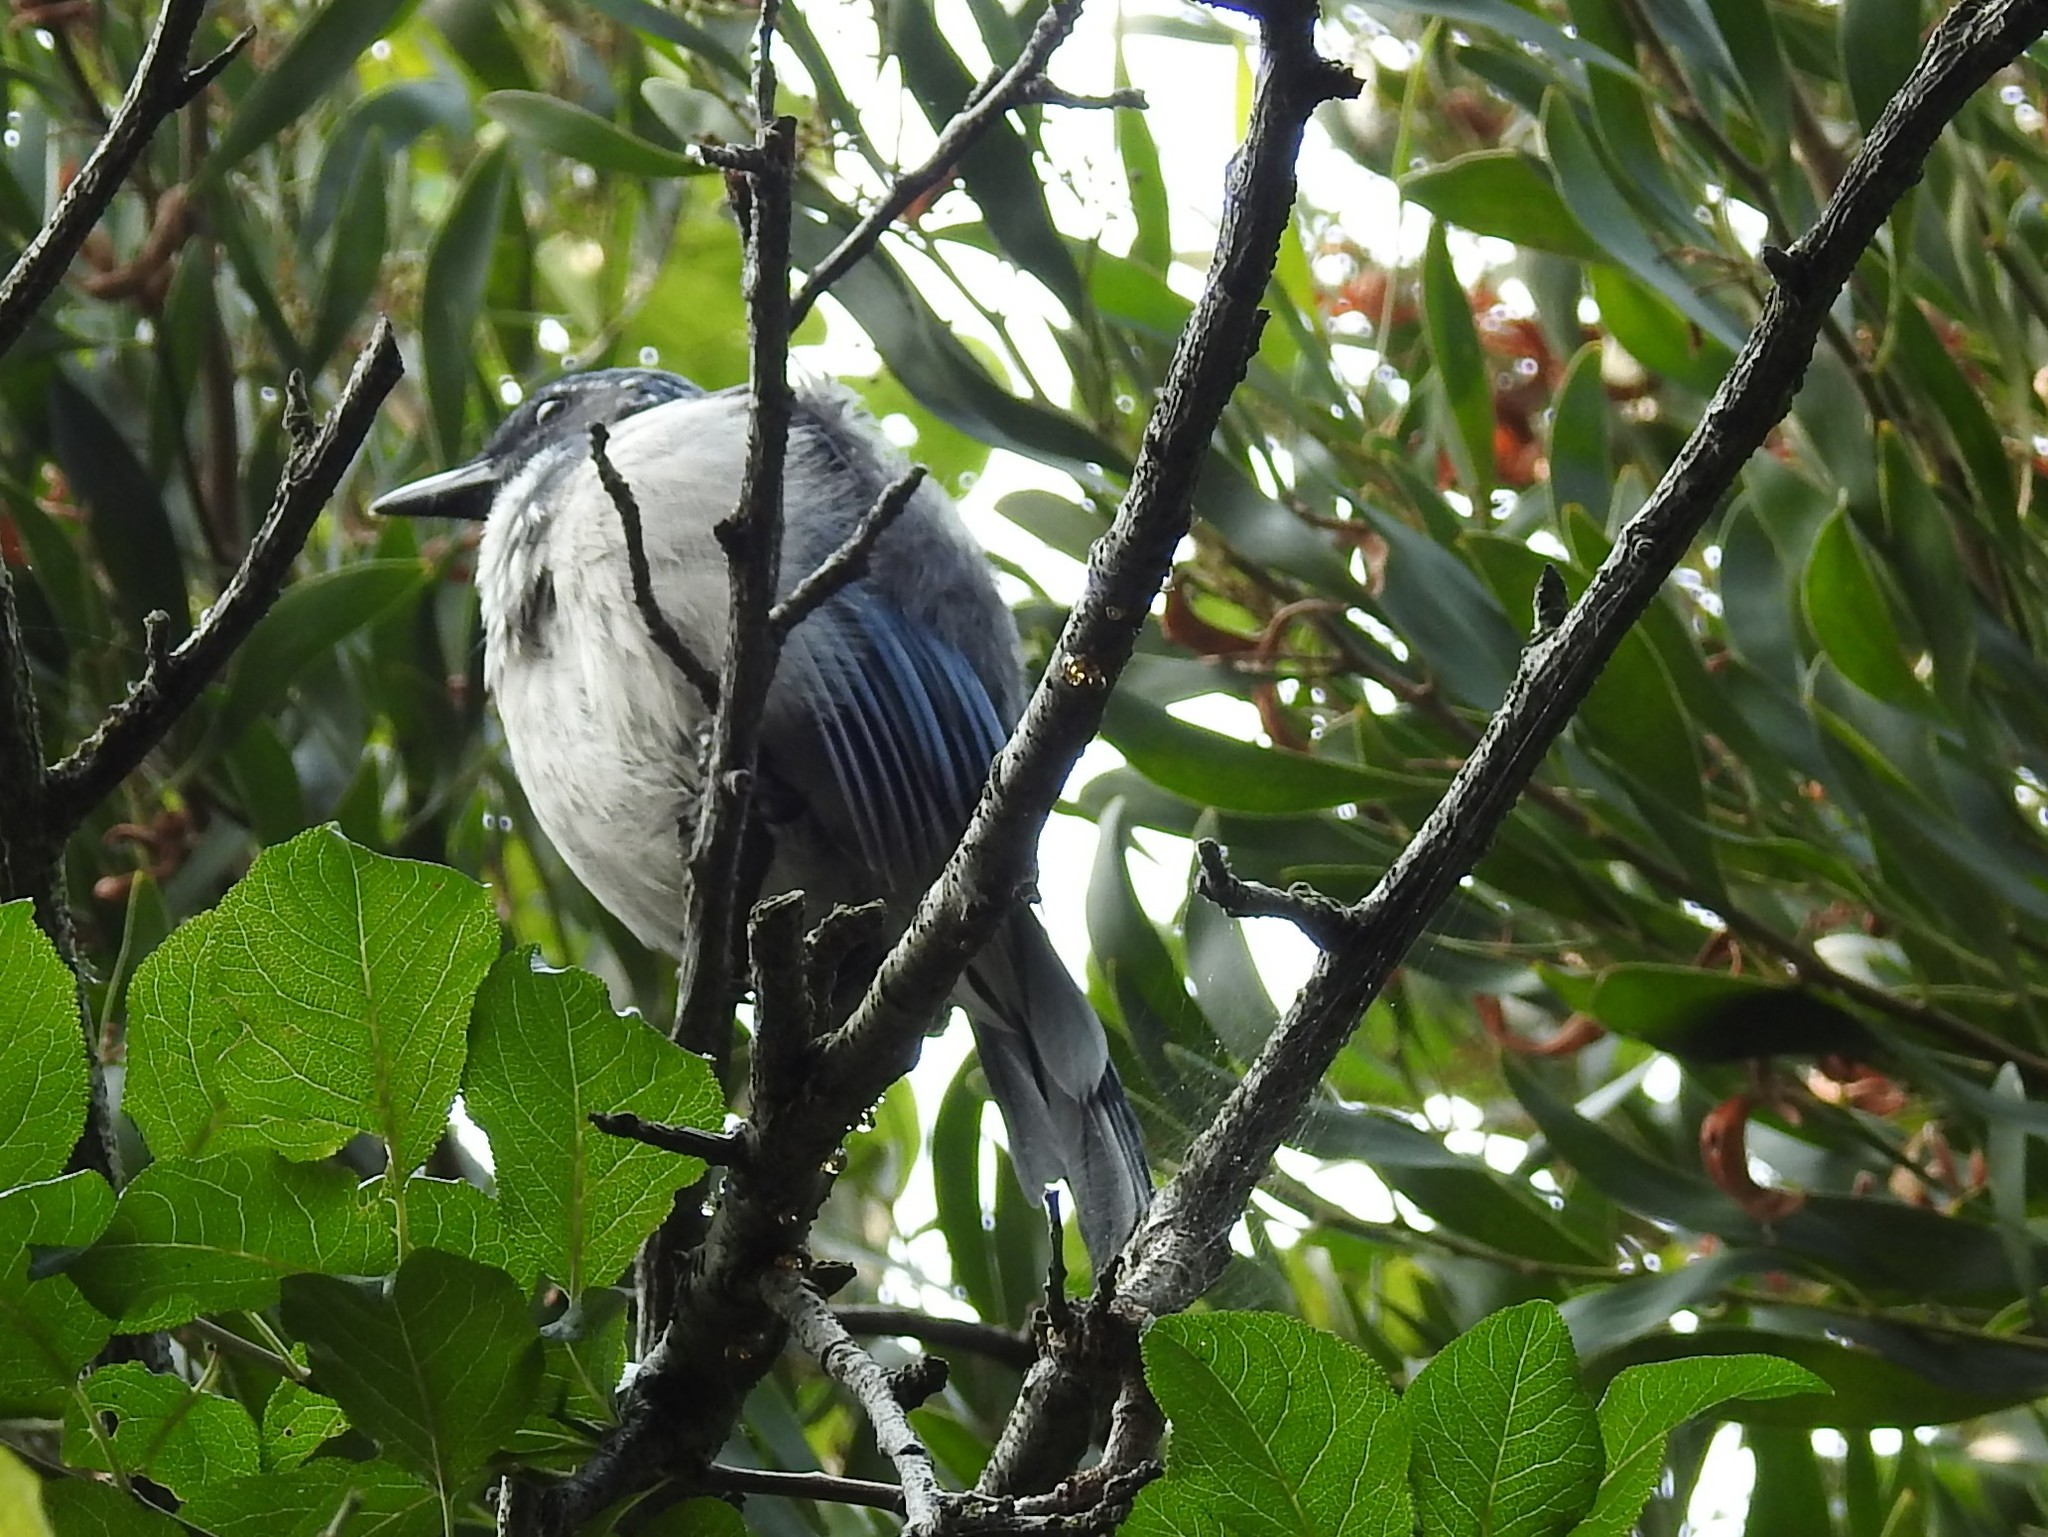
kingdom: Animalia
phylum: Chordata
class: Aves
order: Passeriformes
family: Corvidae
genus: Aphelocoma
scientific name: Aphelocoma californica
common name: California scrub-jay
